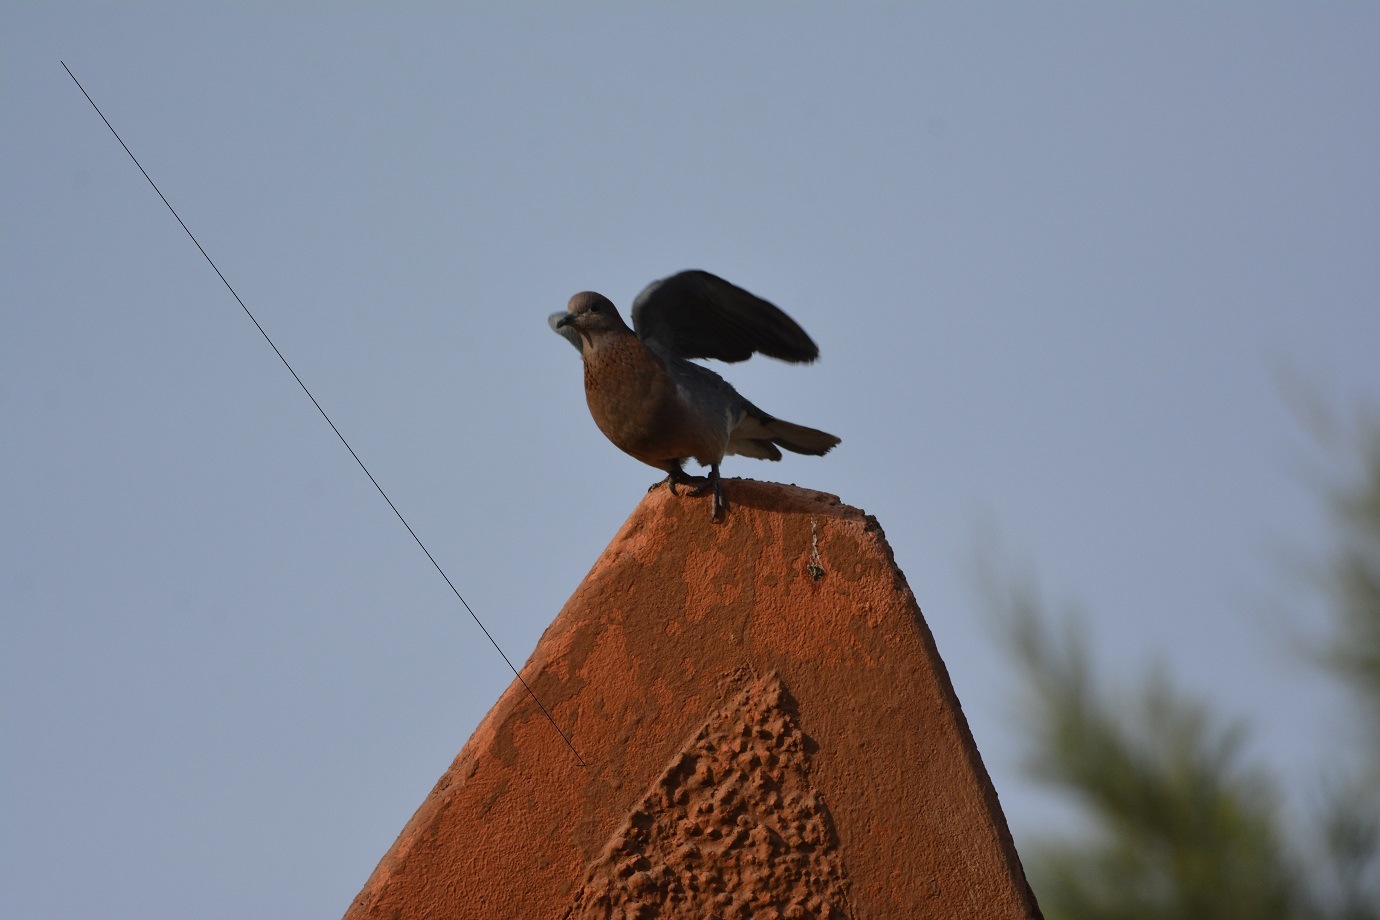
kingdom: Animalia
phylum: Chordata
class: Aves
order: Columbiformes
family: Columbidae
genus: Spilopelia
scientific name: Spilopelia senegalensis
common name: Laughing dove
